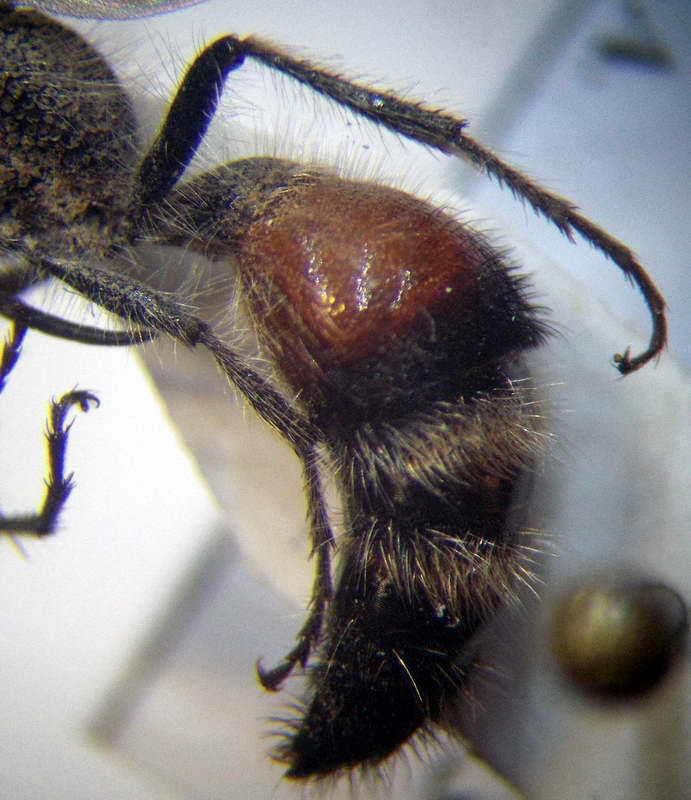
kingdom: Animalia
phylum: Arthropoda
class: Insecta
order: Hymenoptera
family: Mutillidae
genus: Nemka
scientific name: Nemka viduata
